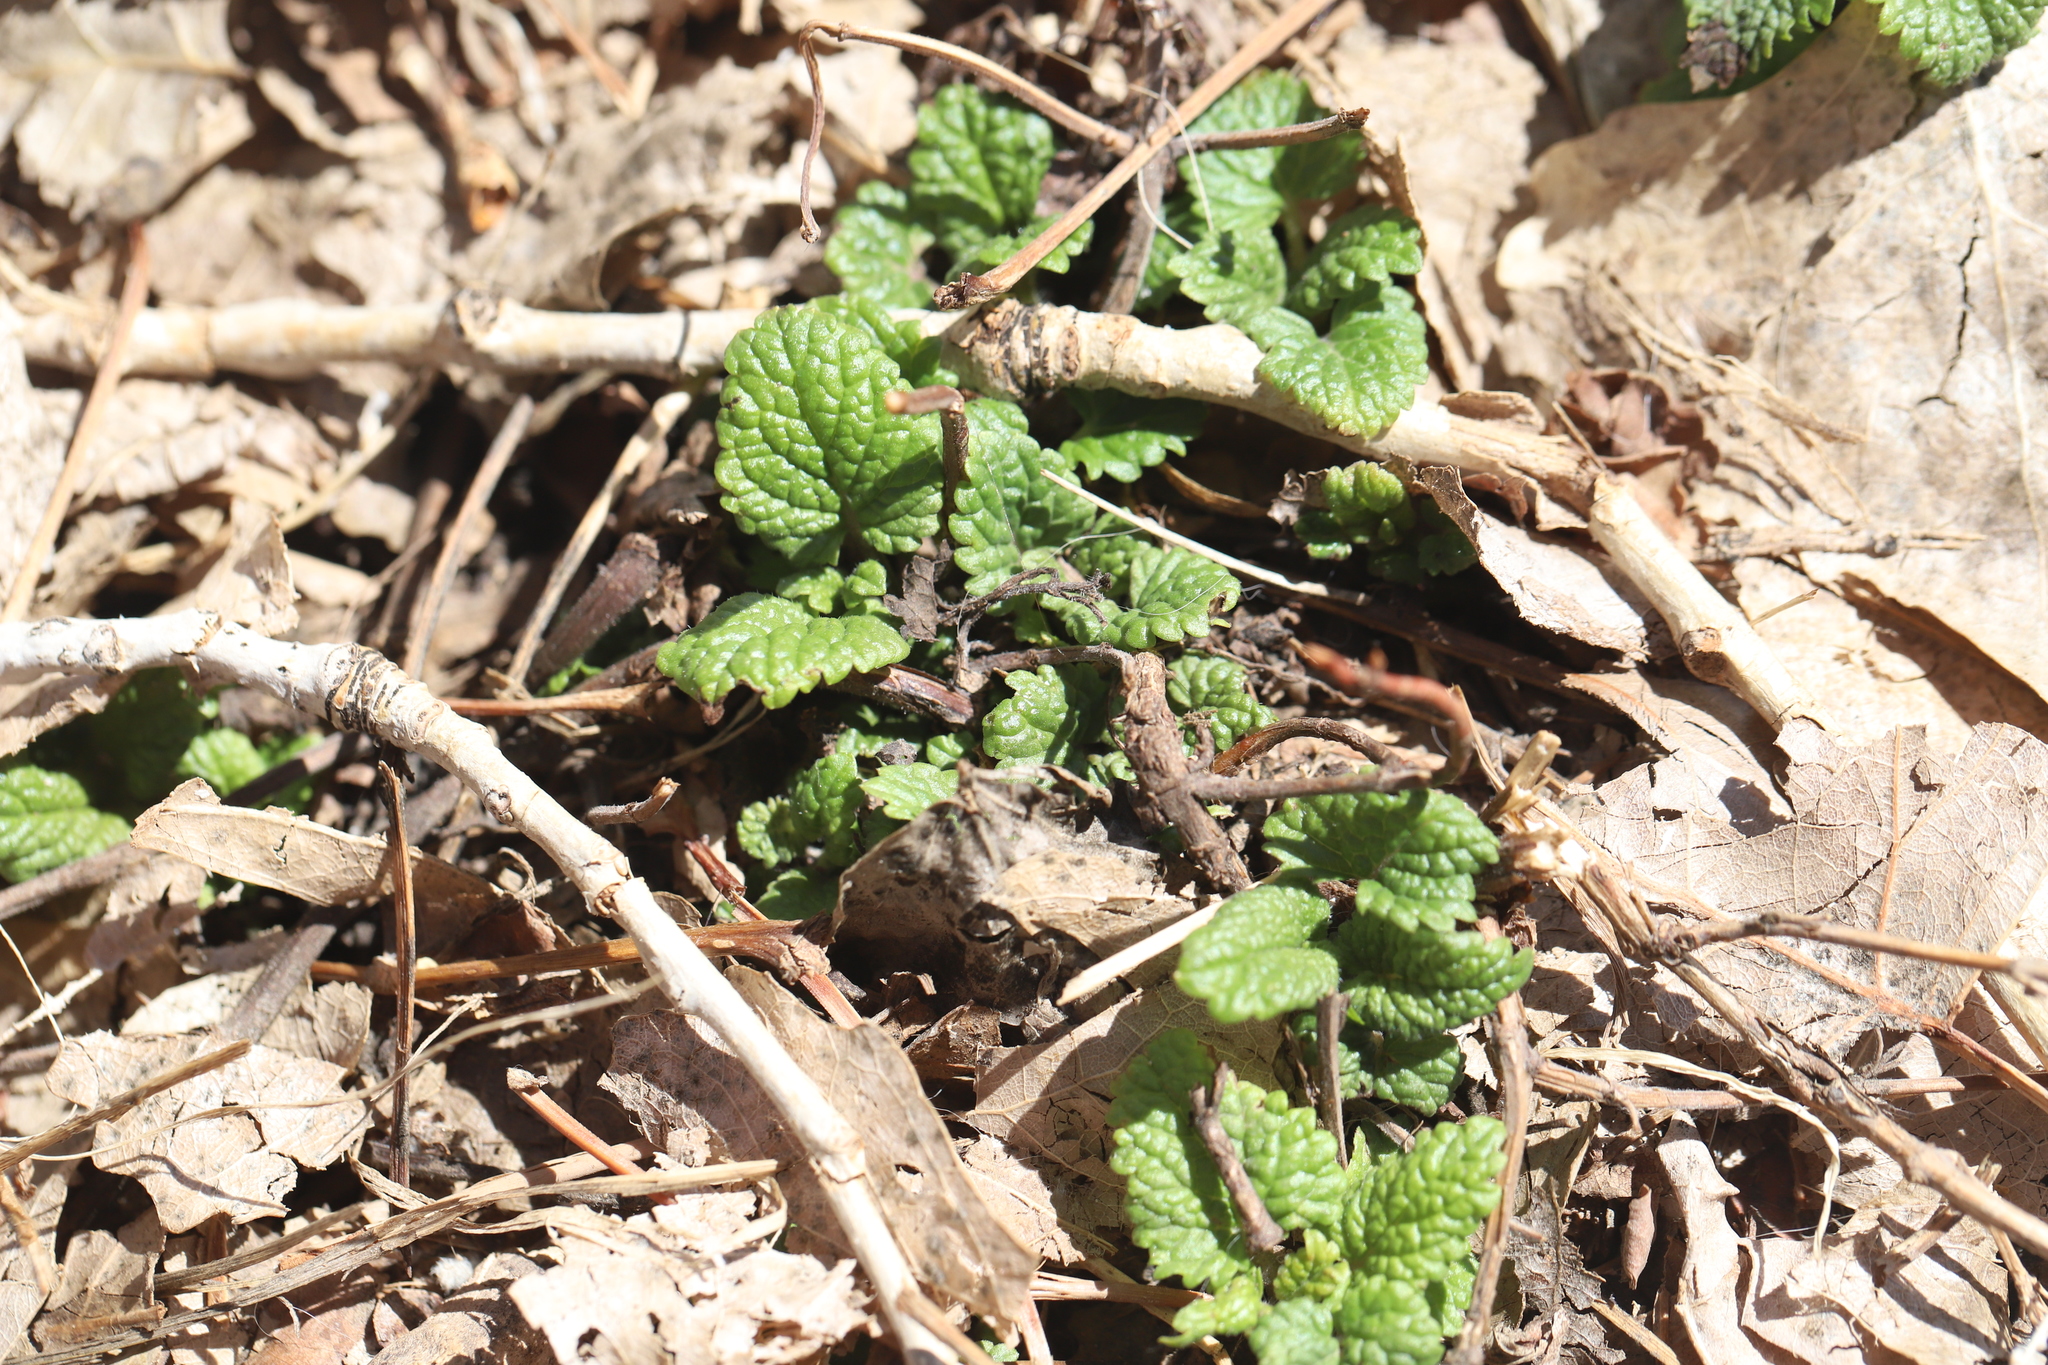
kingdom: Plantae
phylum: Tracheophyta
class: Magnoliopsida
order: Lamiales
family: Lamiaceae
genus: Melissa
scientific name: Melissa officinalis
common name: Balm
